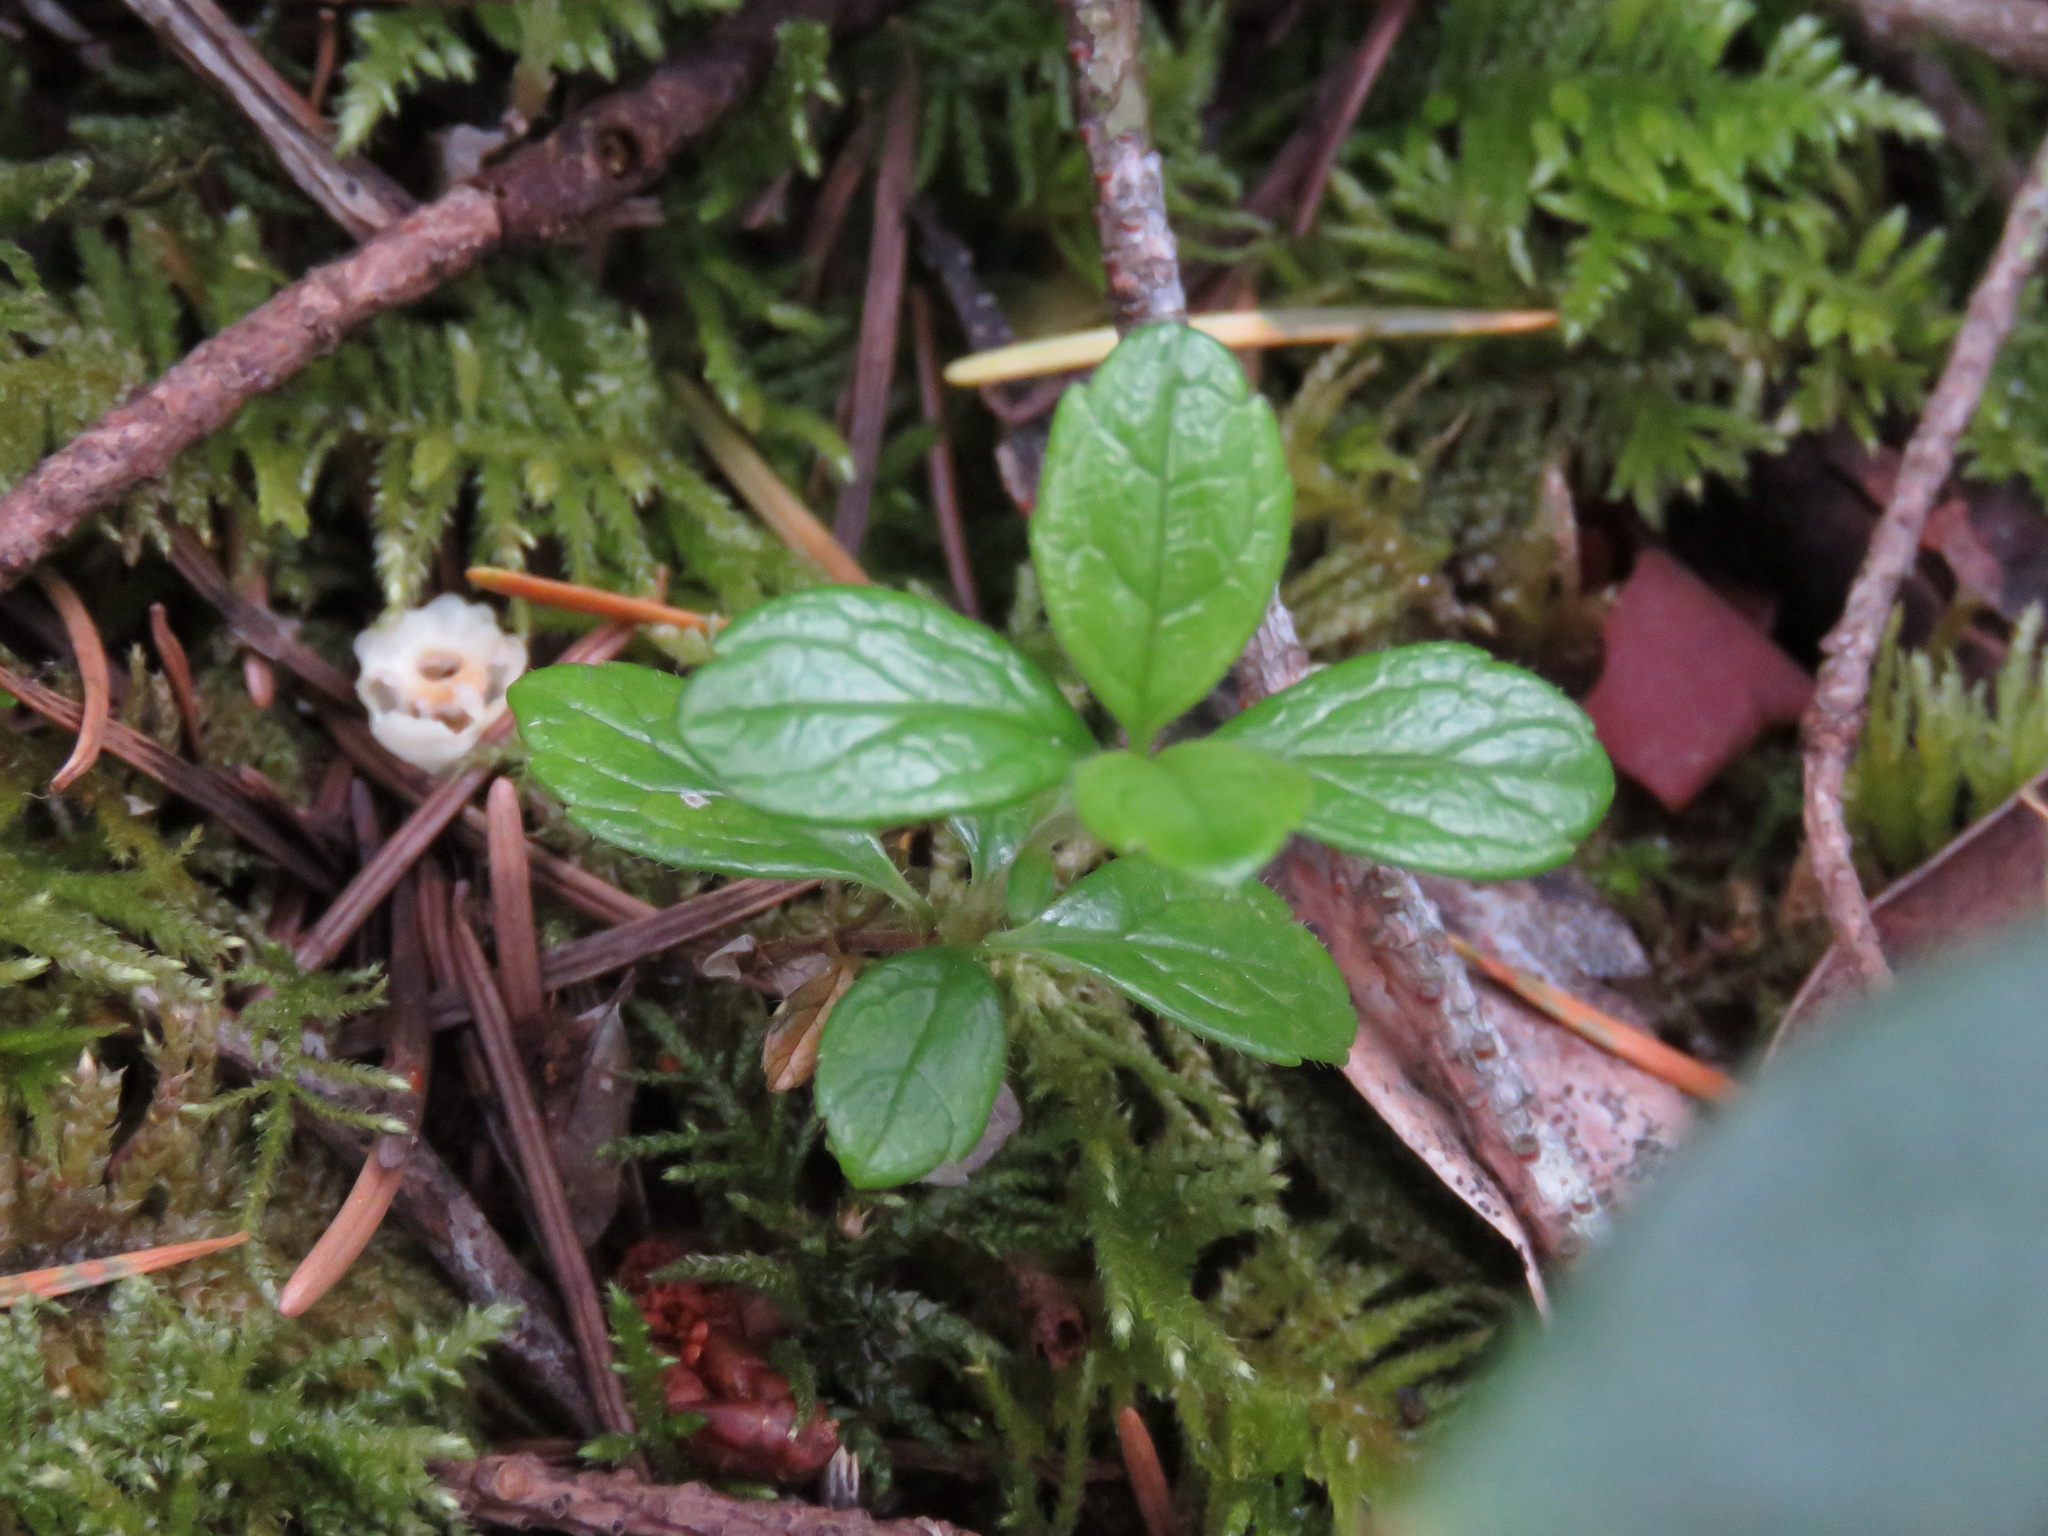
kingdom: Plantae
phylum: Tracheophyta
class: Magnoliopsida
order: Dipsacales
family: Caprifoliaceae
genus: Linnaea
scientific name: Linnaea borealis
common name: Twinflower
